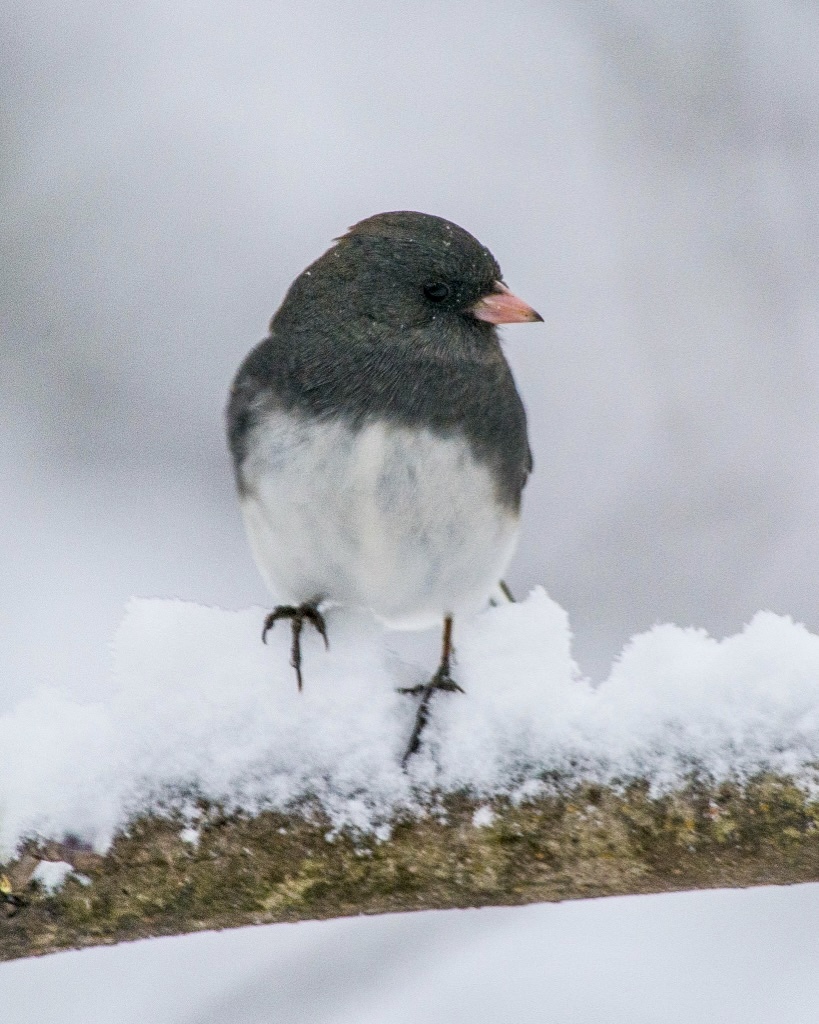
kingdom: Animalia
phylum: Chordata
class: Aves
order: Passeriformes
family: Passerellidae
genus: Junco
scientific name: Junco hyemalis
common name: Dark-eyed junco
